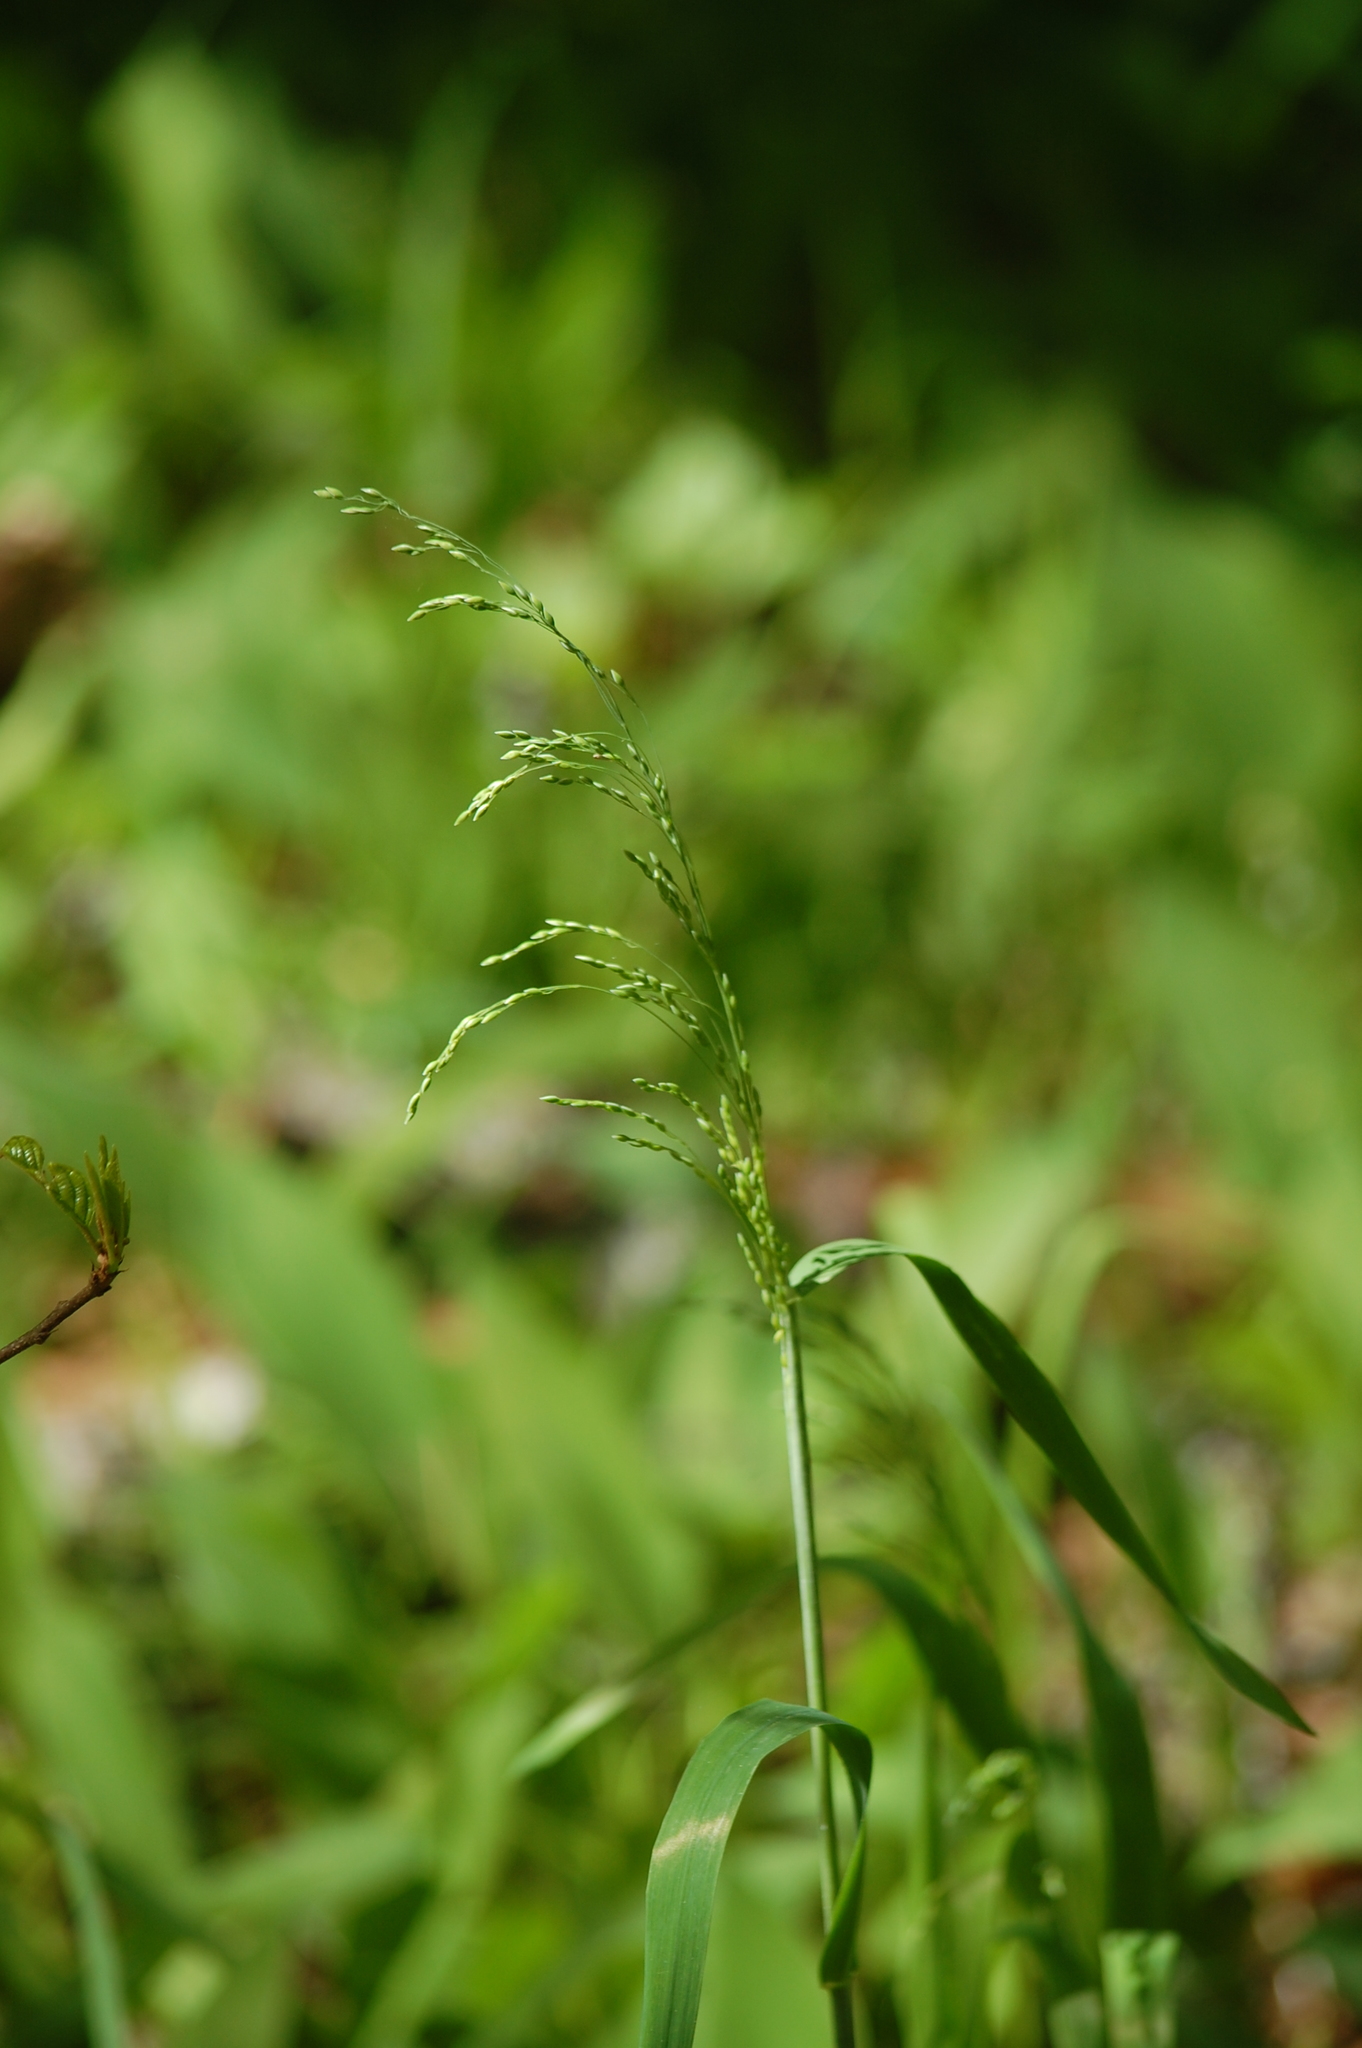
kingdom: Plantae
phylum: Tracheophyta
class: Liliopsida
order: Poales
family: Poaceae
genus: Milium
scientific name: Milium effusum
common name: Wood millet
